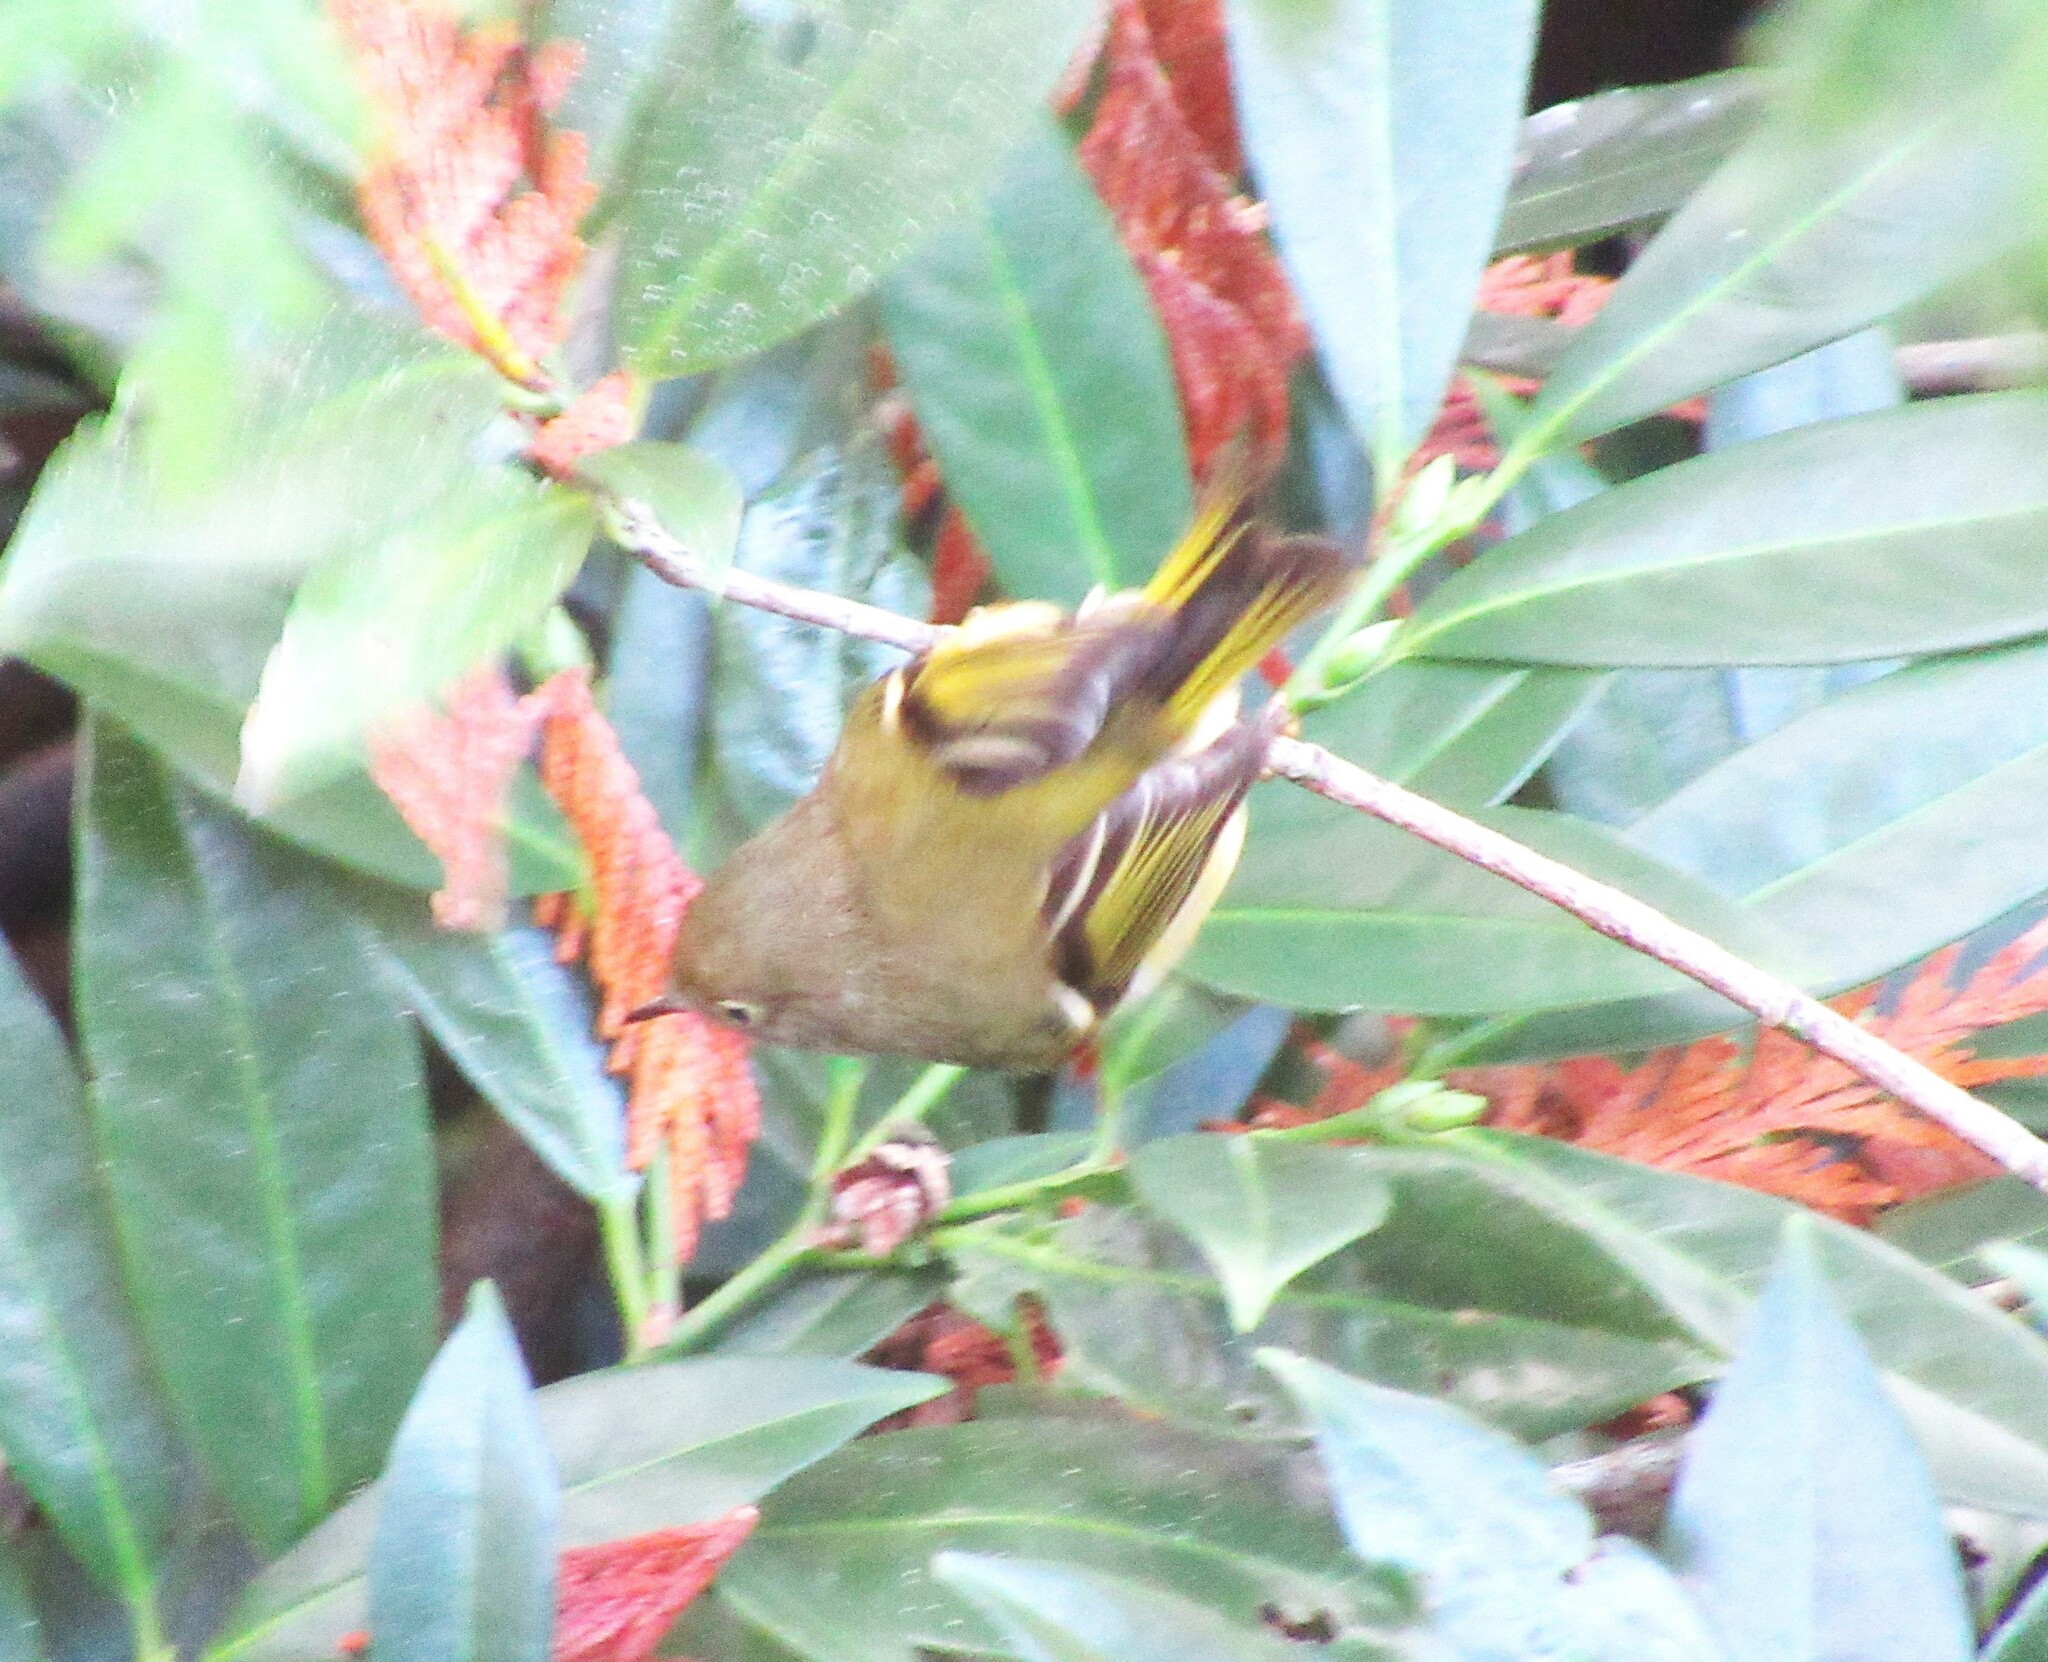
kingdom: Animalia
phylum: Chordata
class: Aves
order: Passeriformes
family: Regulidae
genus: Regulus
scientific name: Regulus calendula
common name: Ruby-crowned kinglet
